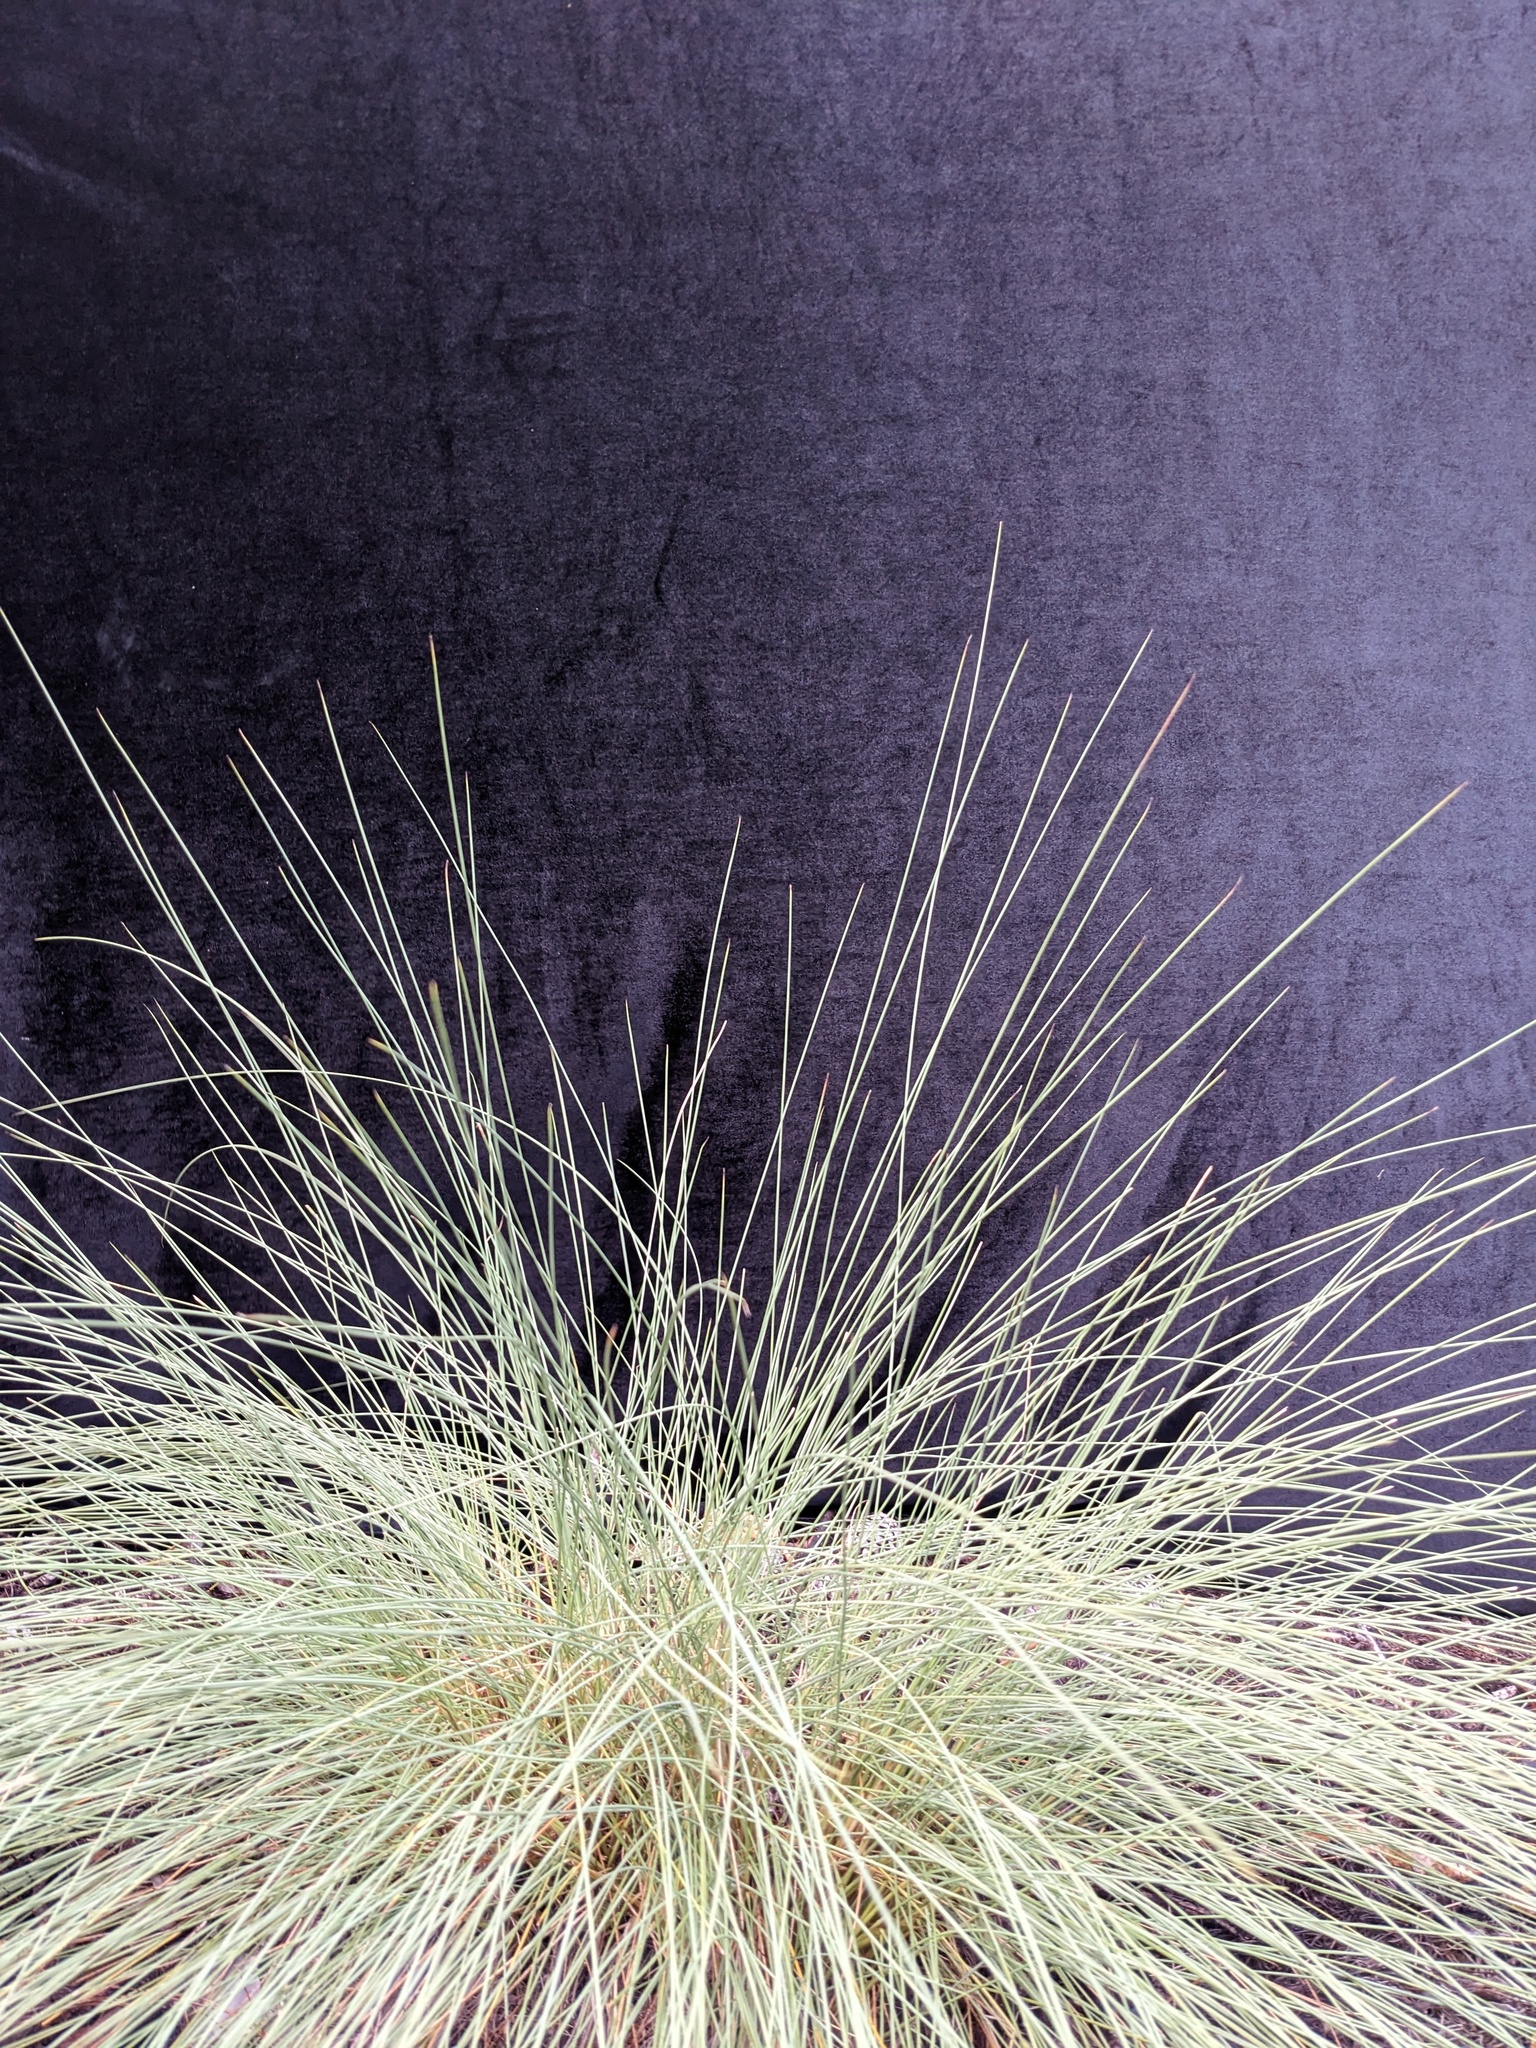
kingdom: Plantae
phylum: Tracheophyta
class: Liliopsida
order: Poales
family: Poaceae
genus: Lasiorhachis
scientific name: Lasiorhachis viguieri
